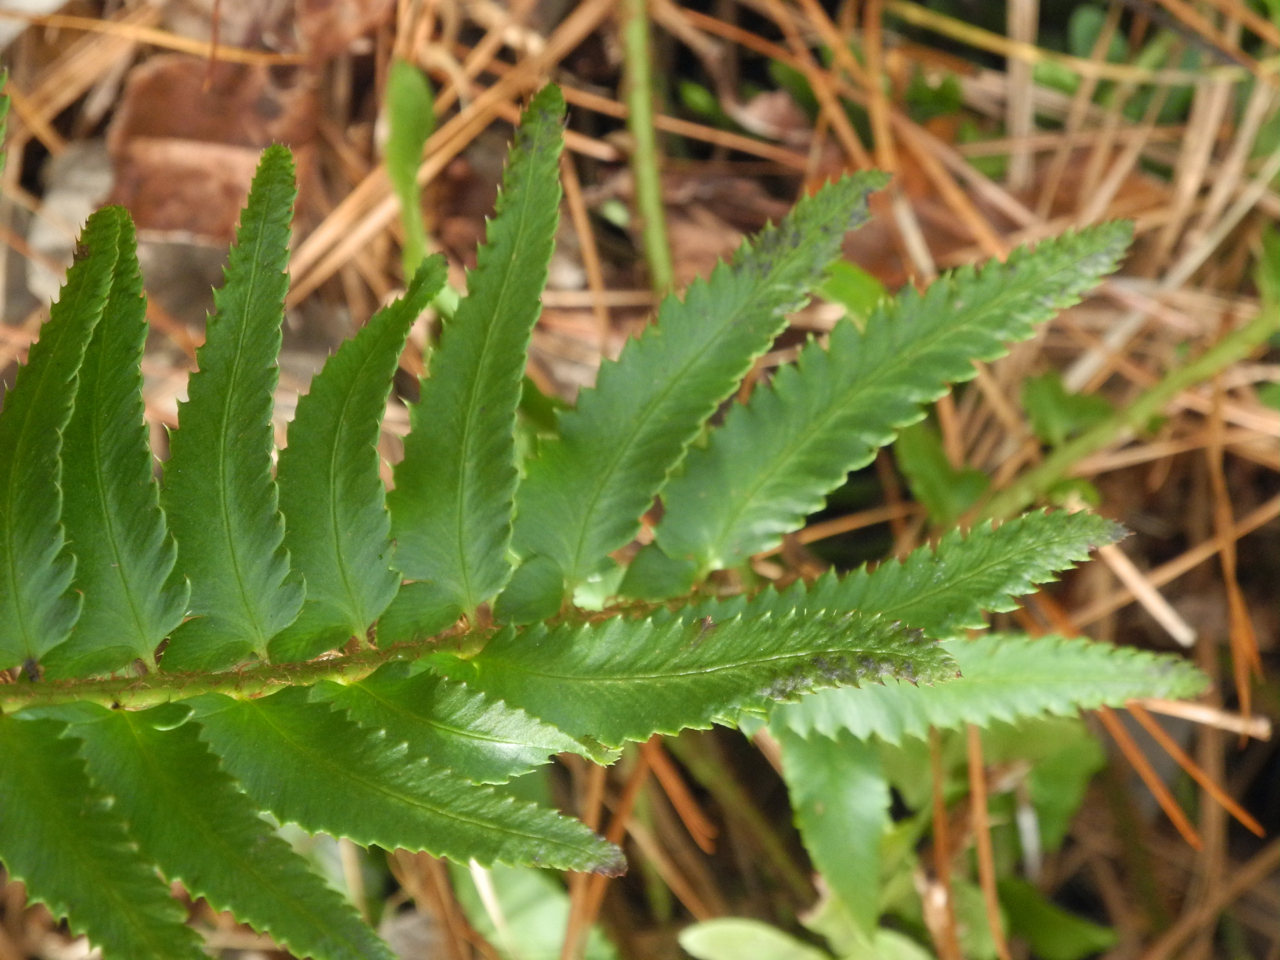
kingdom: Plantae
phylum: Tracheophyta
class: Polypodiopsida
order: Polypodiales
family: Dryopteridaceae
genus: Polystichum
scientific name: Polystichum acrostichoides
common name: Christmas fern
